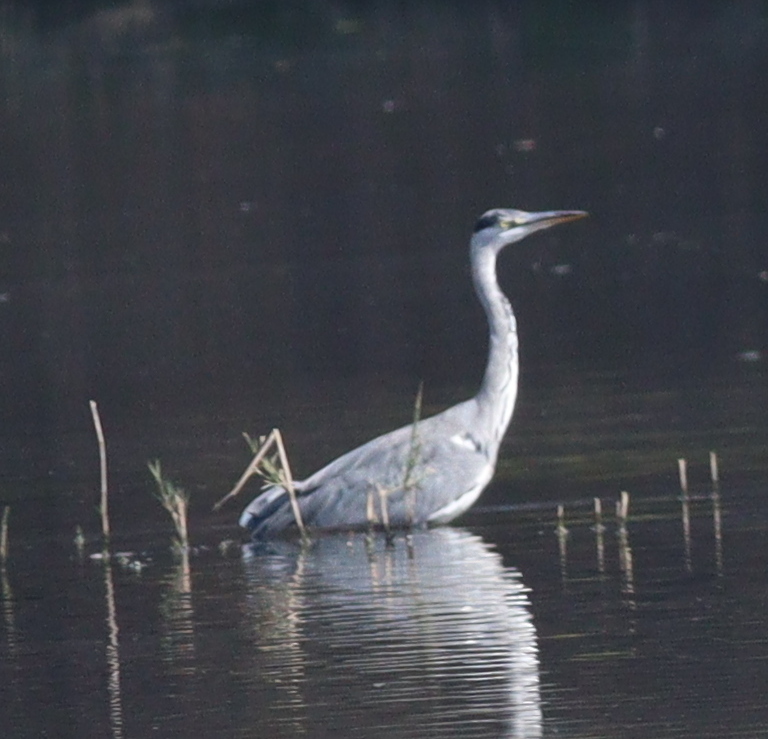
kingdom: Animalia
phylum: Chordata
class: Aves
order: Pelecaniformes
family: Ardeidae
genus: Ardea
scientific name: Ardea cinerea
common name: Grey heron
